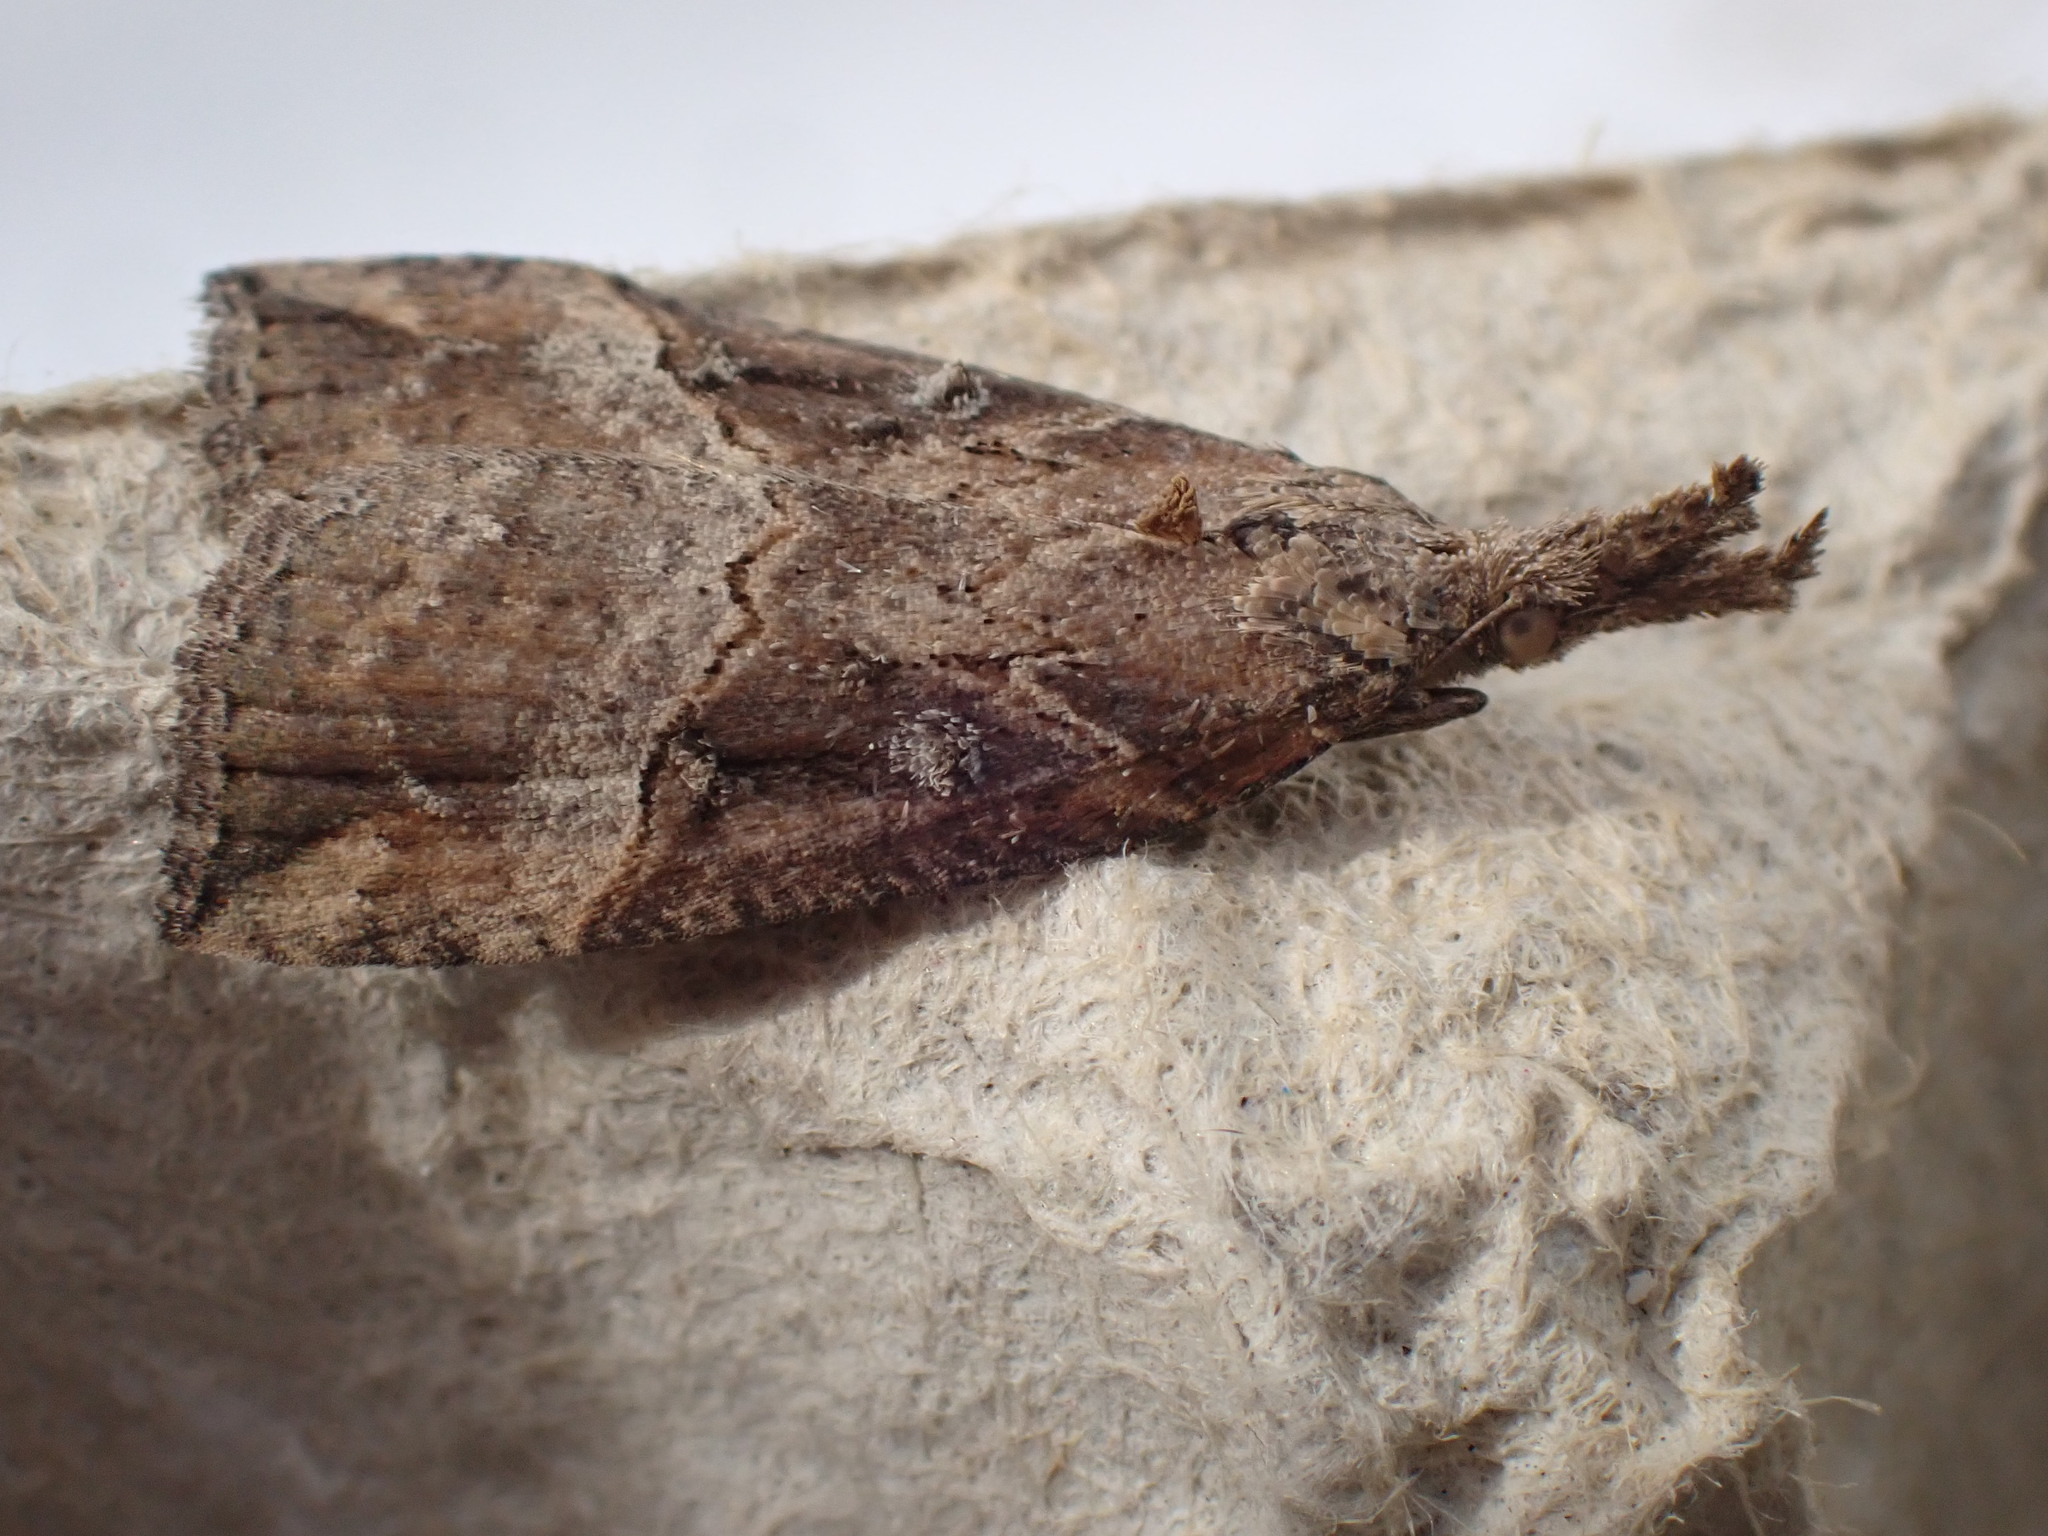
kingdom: Animalia
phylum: Arthropoda
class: Insecta
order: Lepidoptera
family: Erebidae
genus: Hypena
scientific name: Hypena rostralis
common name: Buttoned snout
